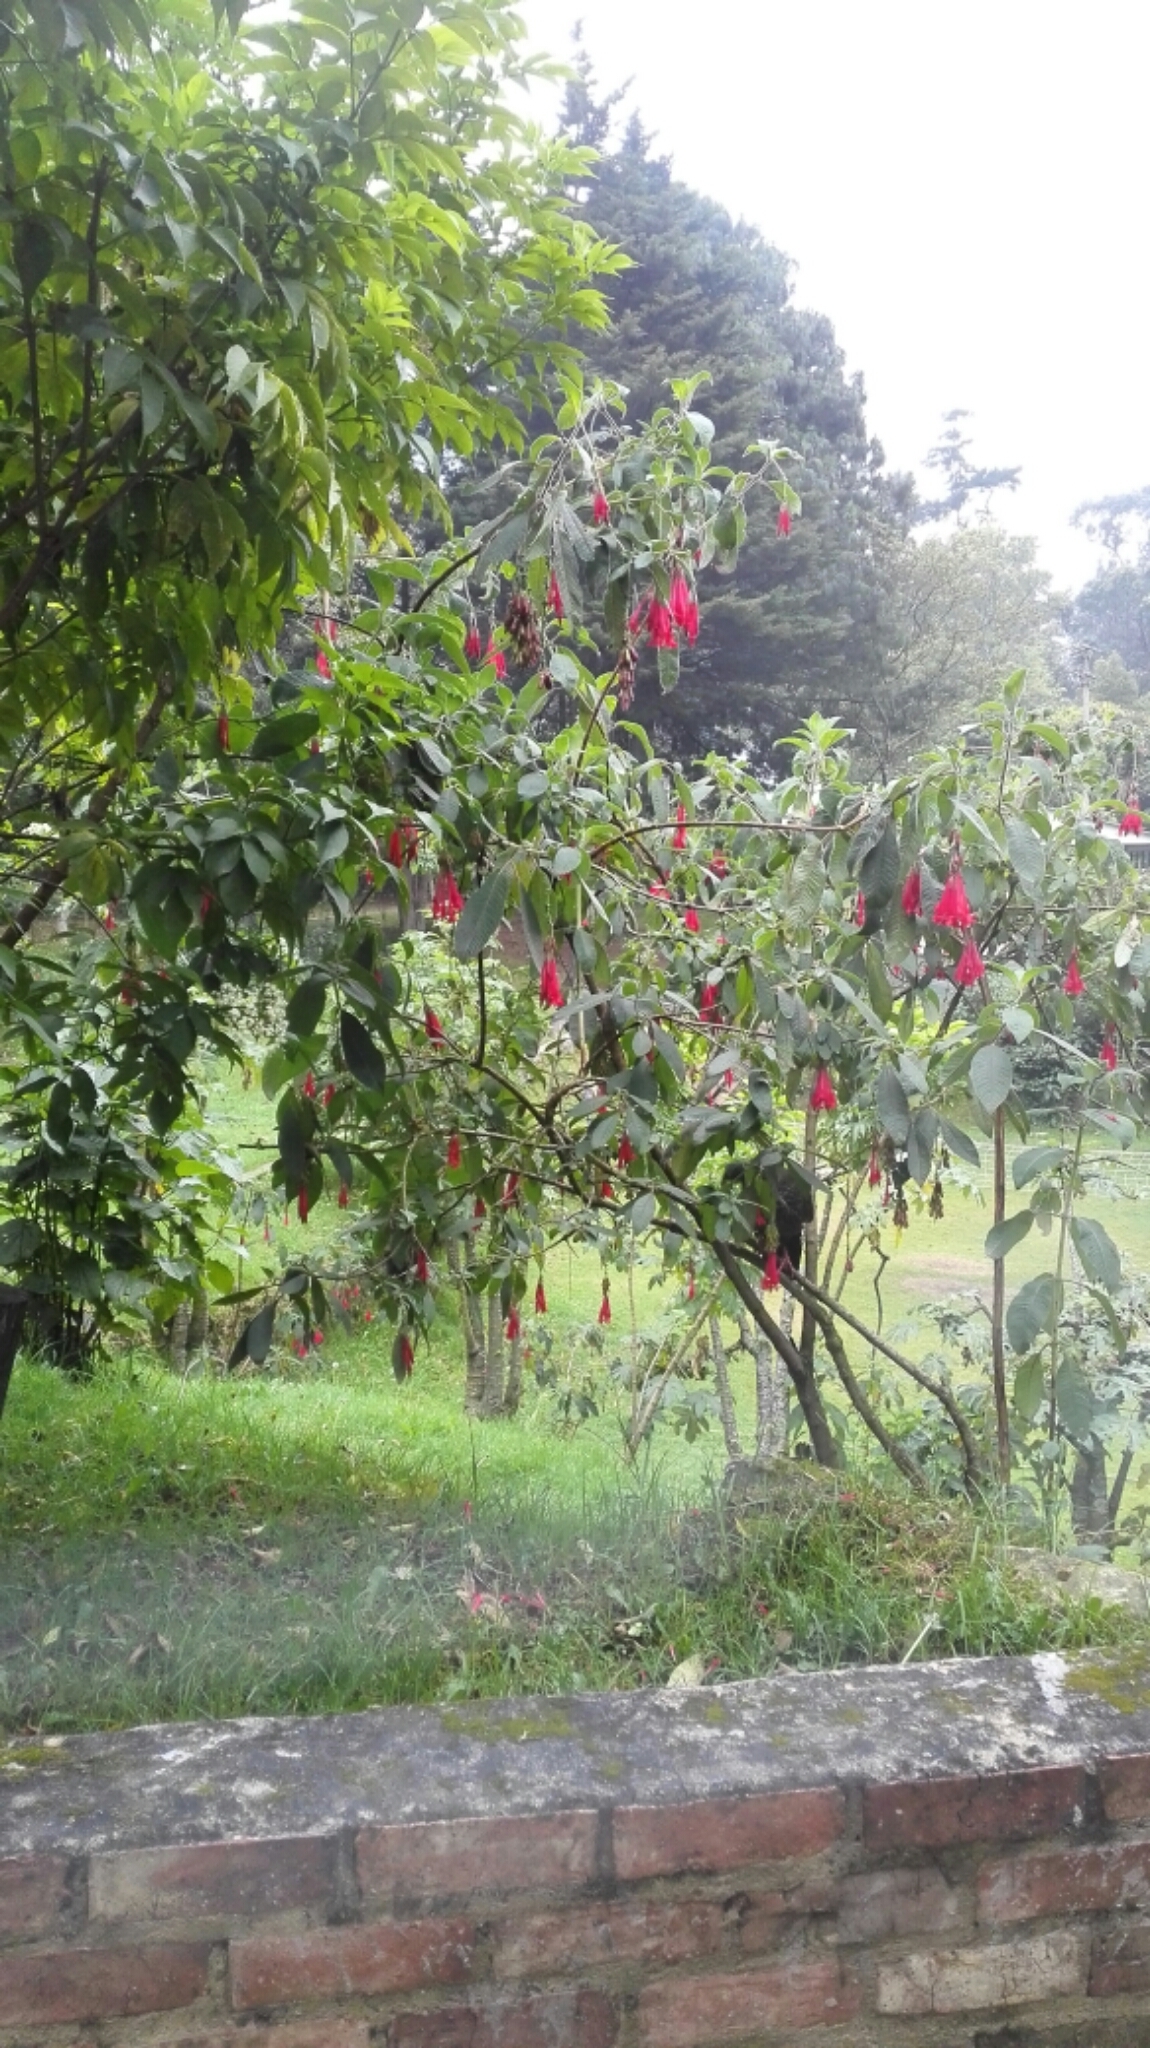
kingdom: Animalia
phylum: Chordata
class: Aves
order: Galliformes
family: Cracidae
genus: Penelope
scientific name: Penelope montagnii
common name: Andean guan
